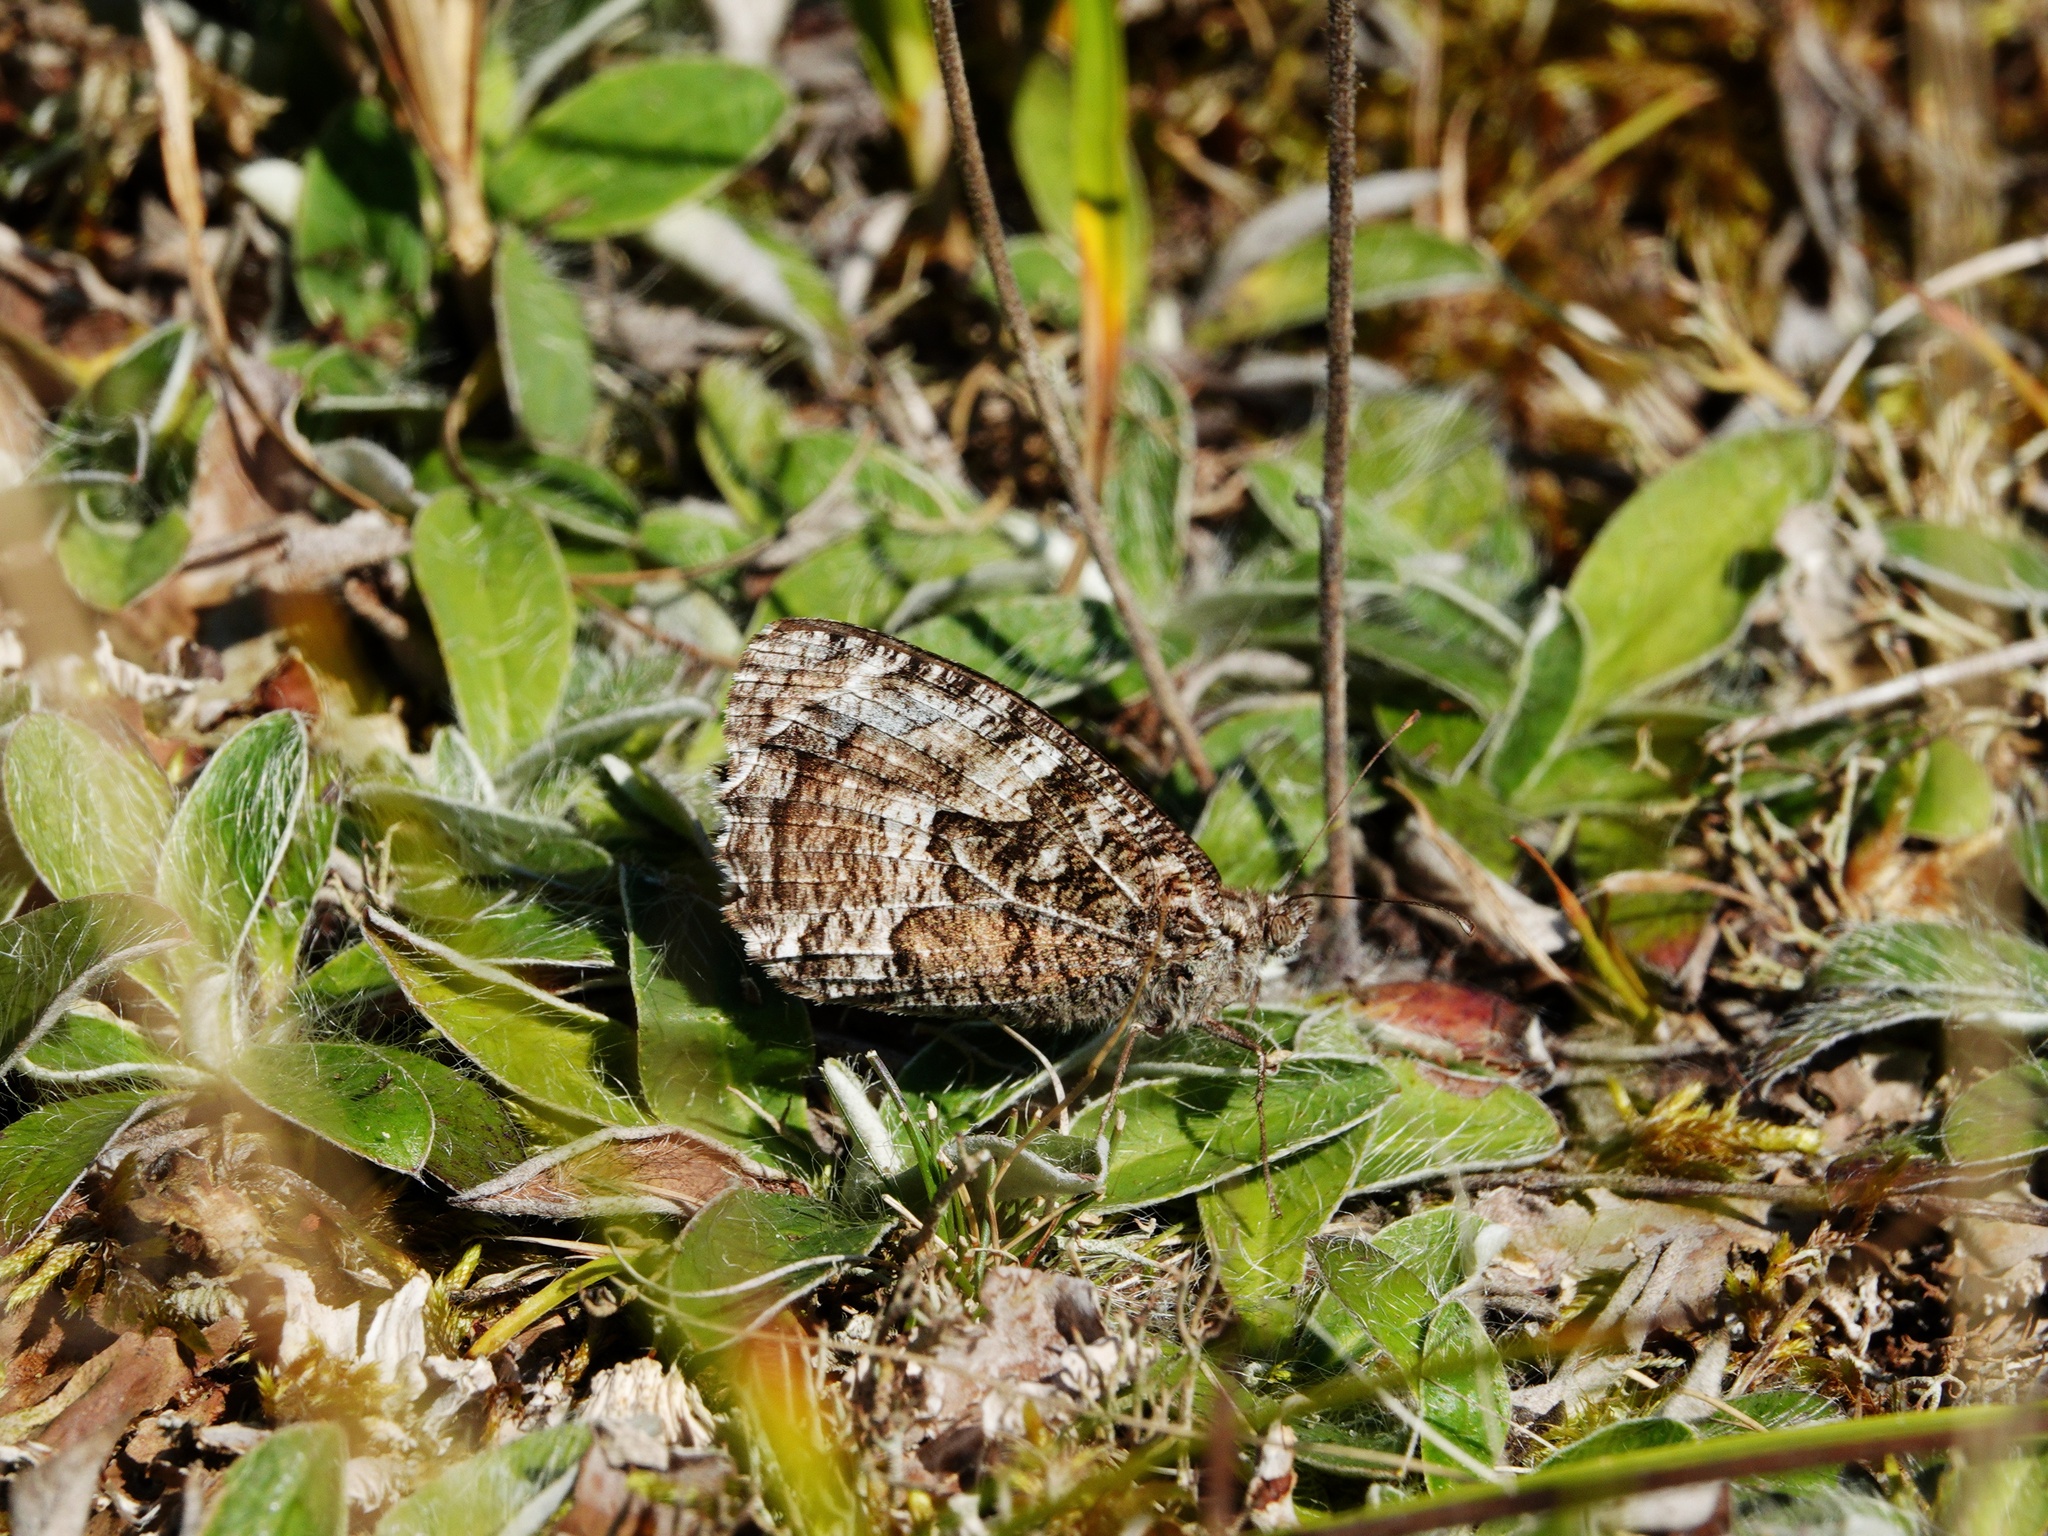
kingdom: Animalia
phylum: Arthropoda
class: Insecta
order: Lepidoptera
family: Nymphalidae
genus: Hipparchia
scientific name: Hipparchia semele
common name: Grayling
